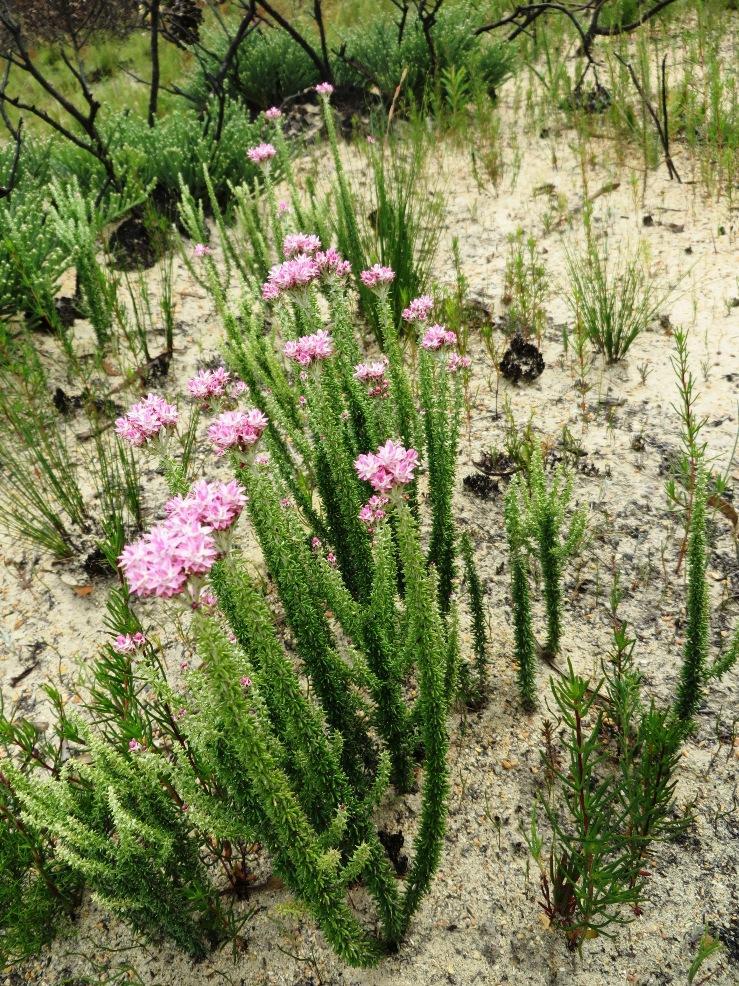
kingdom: Plantae
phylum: Tracheophyta
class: Magnoliopsida
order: Asterales
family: Asteraceae
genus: Lachnospermum
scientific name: Lachnospermum umbellatum
